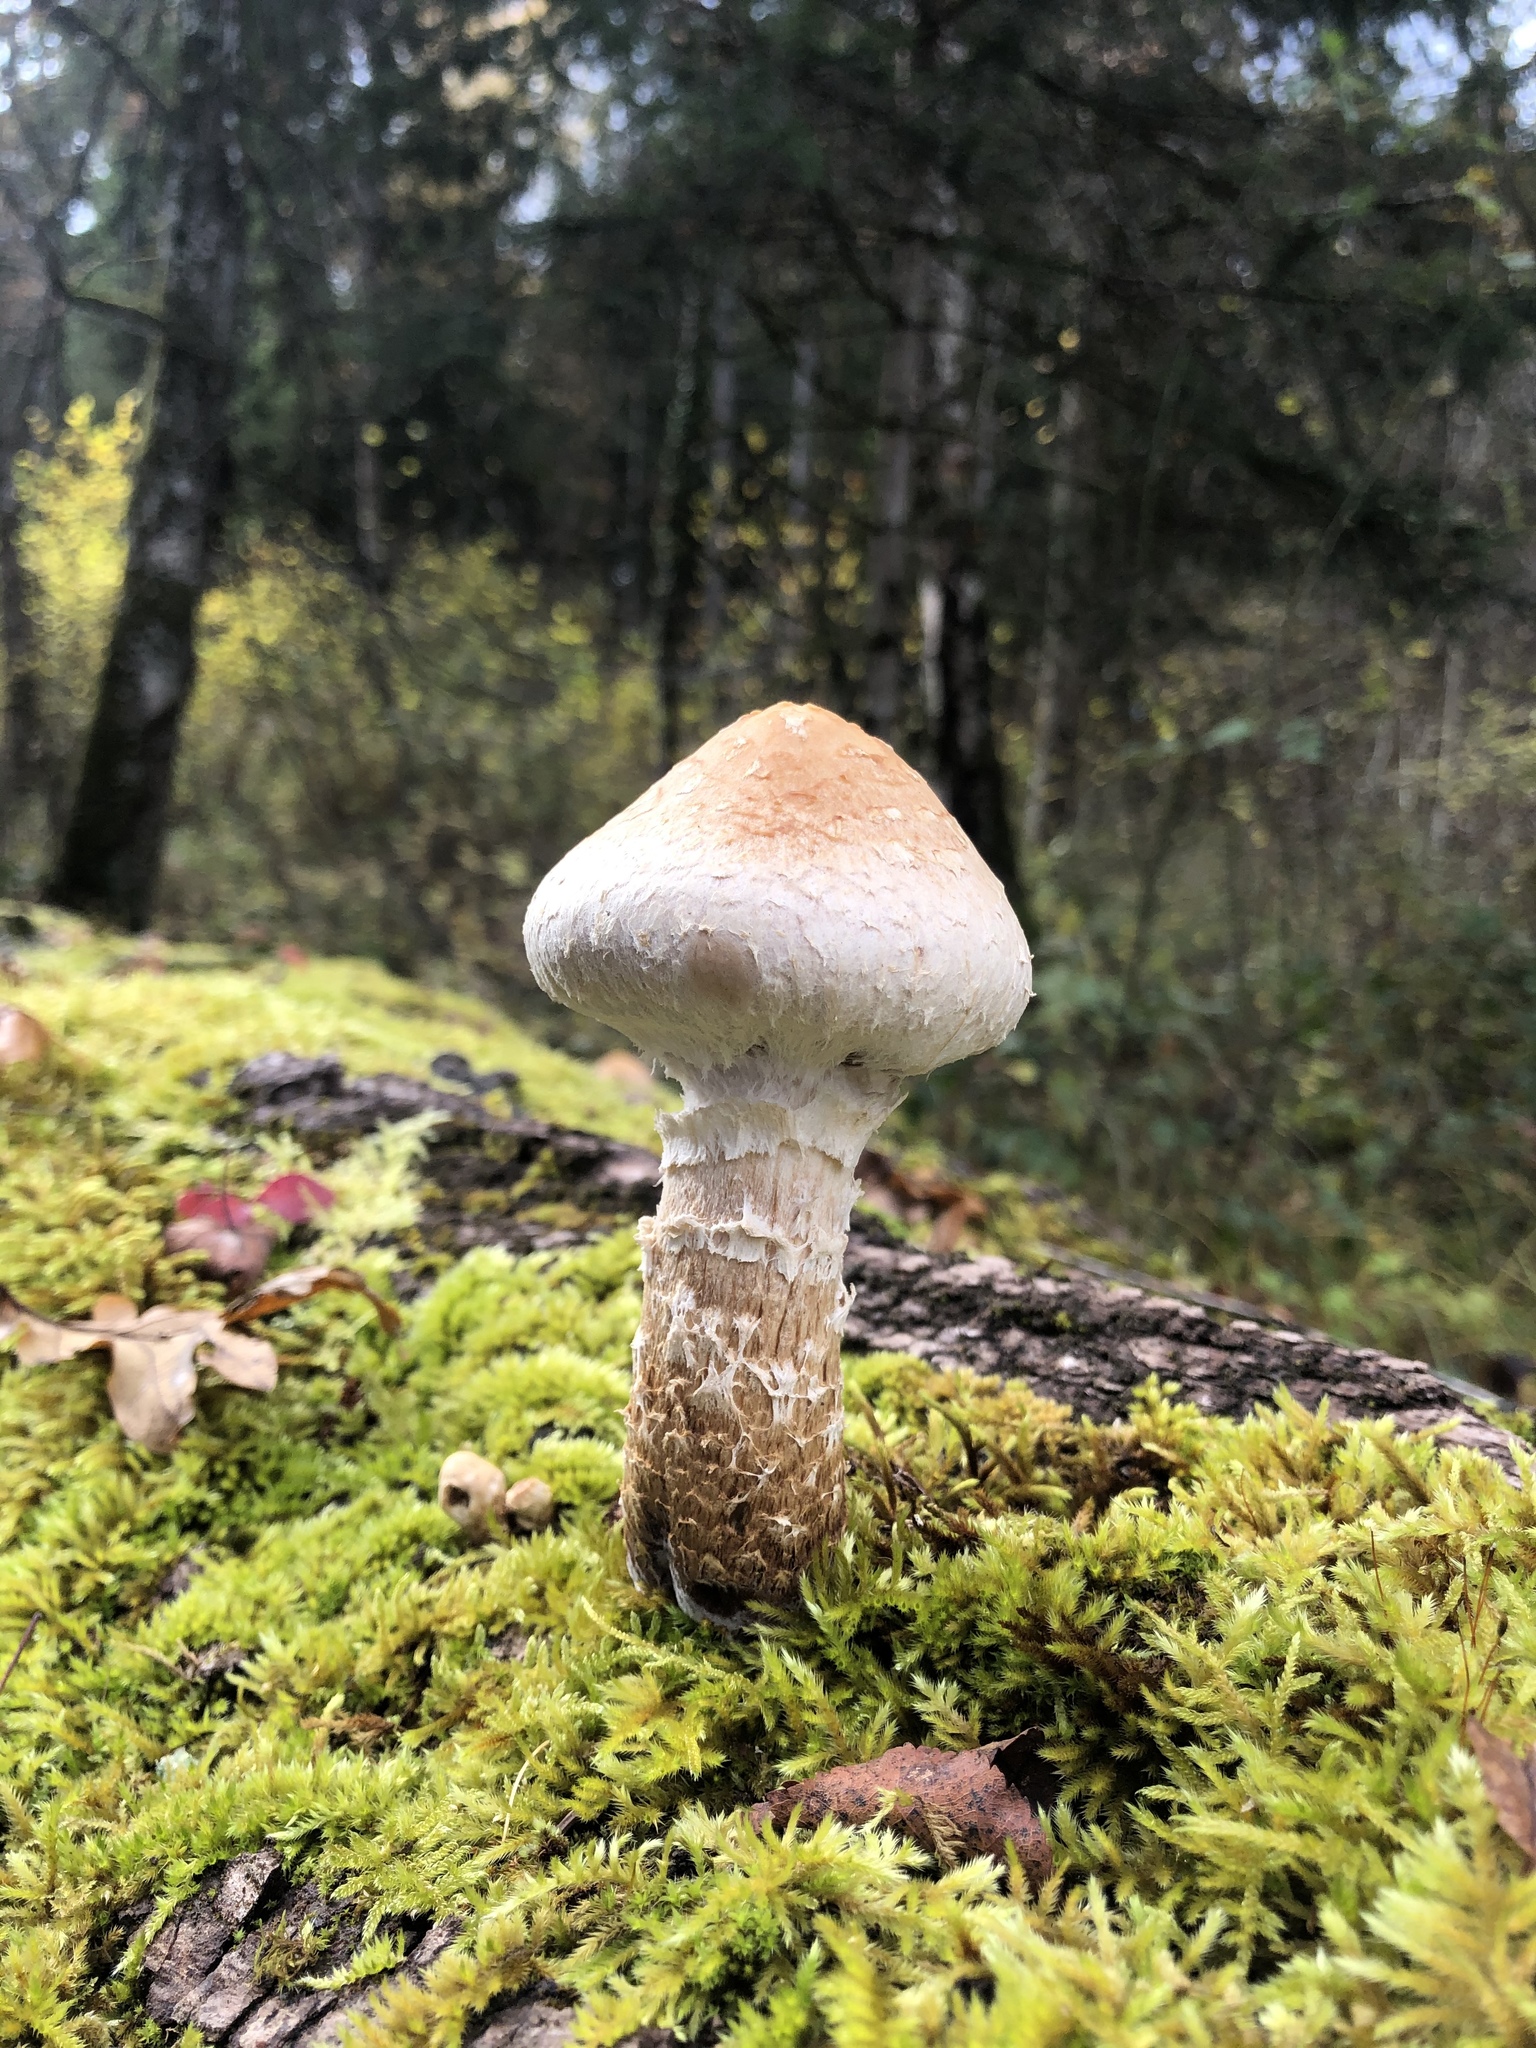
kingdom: Fungi
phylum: Basidiomycota
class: Agaricomycetes
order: Agaricales
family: Strophariaceae
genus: Pholiota
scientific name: Pholiota populnea
